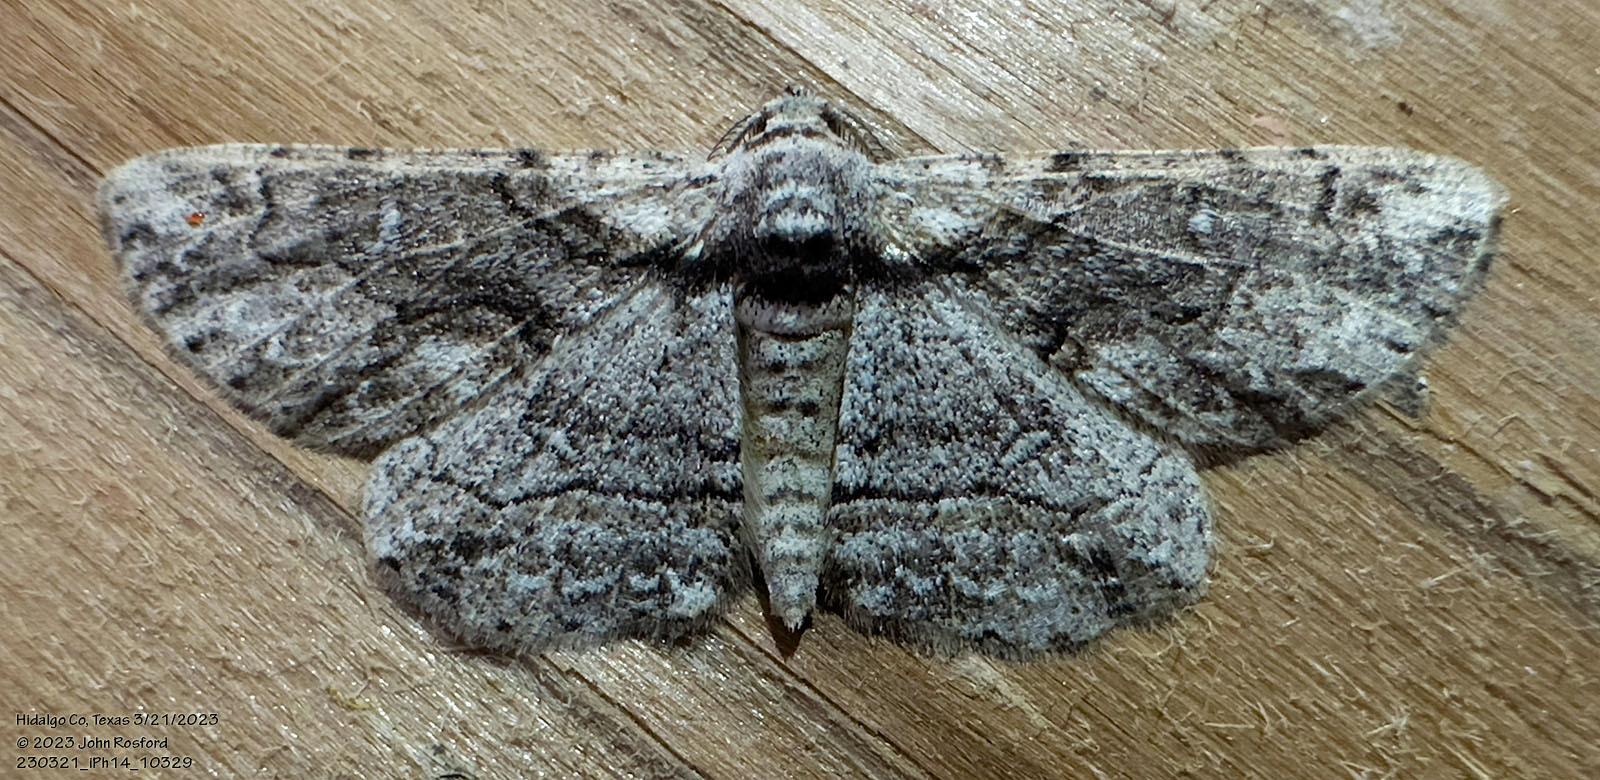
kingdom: Animalia
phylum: Arthropoda
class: Insecta
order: Lepidoptera
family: Geometridae
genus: Iridopsis
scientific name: Iridopsis dataria
